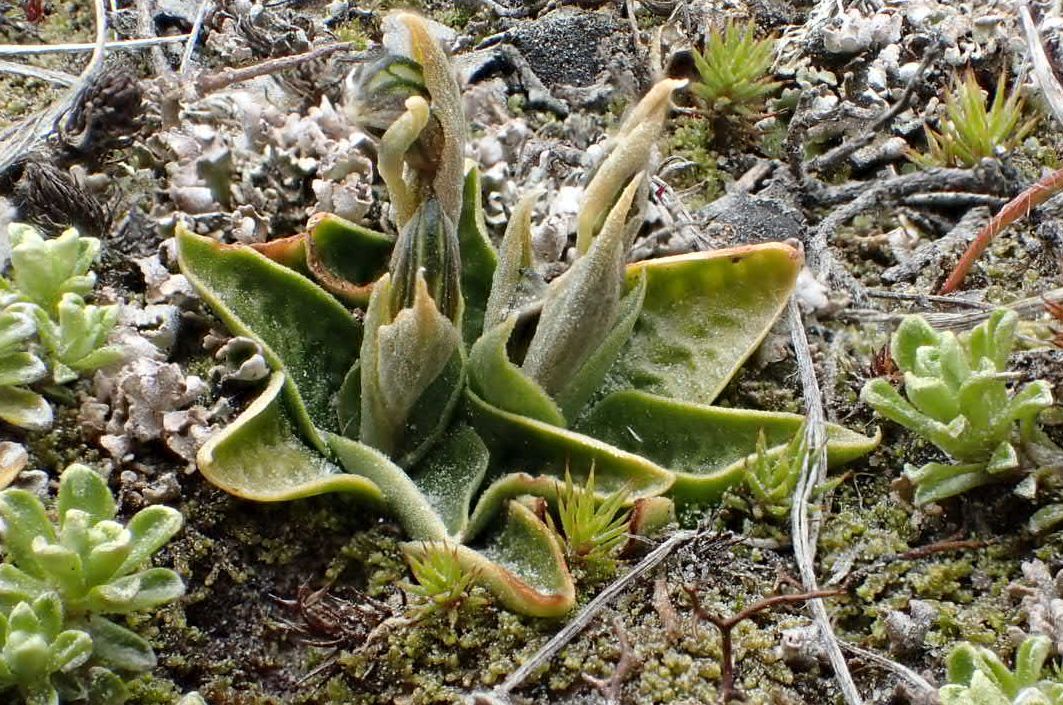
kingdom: Plantae
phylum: Tracheophyta
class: Liliopsida
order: Asparagales
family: Orchidaceae
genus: Pterostylis
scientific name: Pterostylis tanypoda
